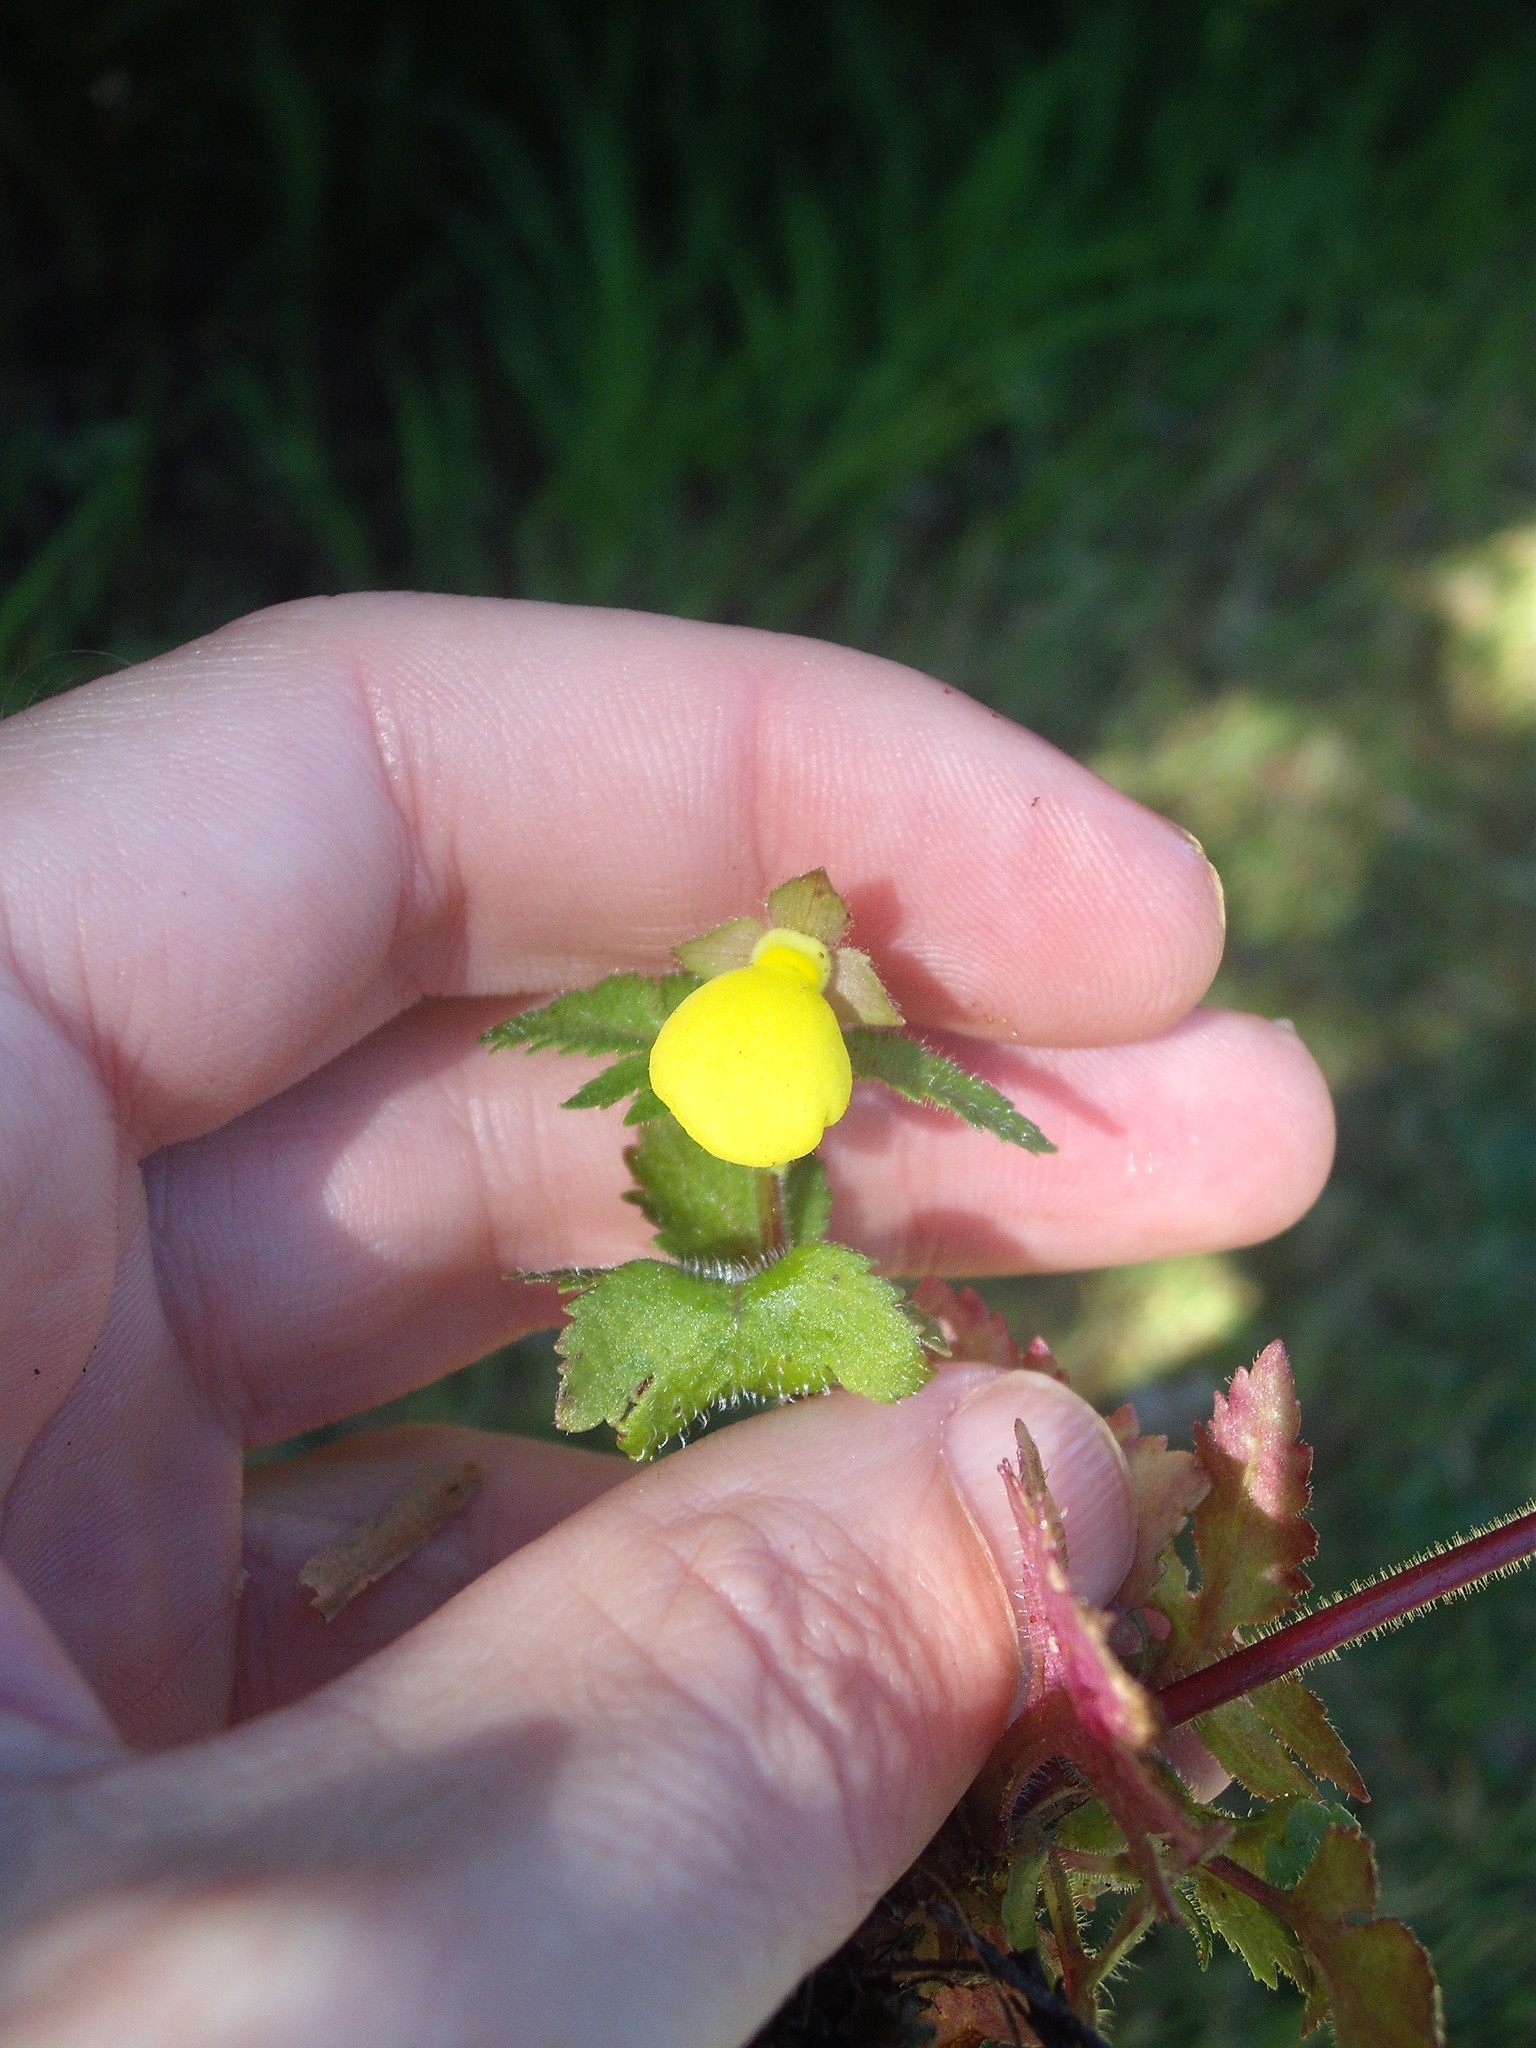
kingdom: Plantae
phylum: Tracheophyta
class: Magnoliopsida
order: Lamiales
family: Calceolariaceae
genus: Calceolaria
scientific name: Calceolaria tripartita
